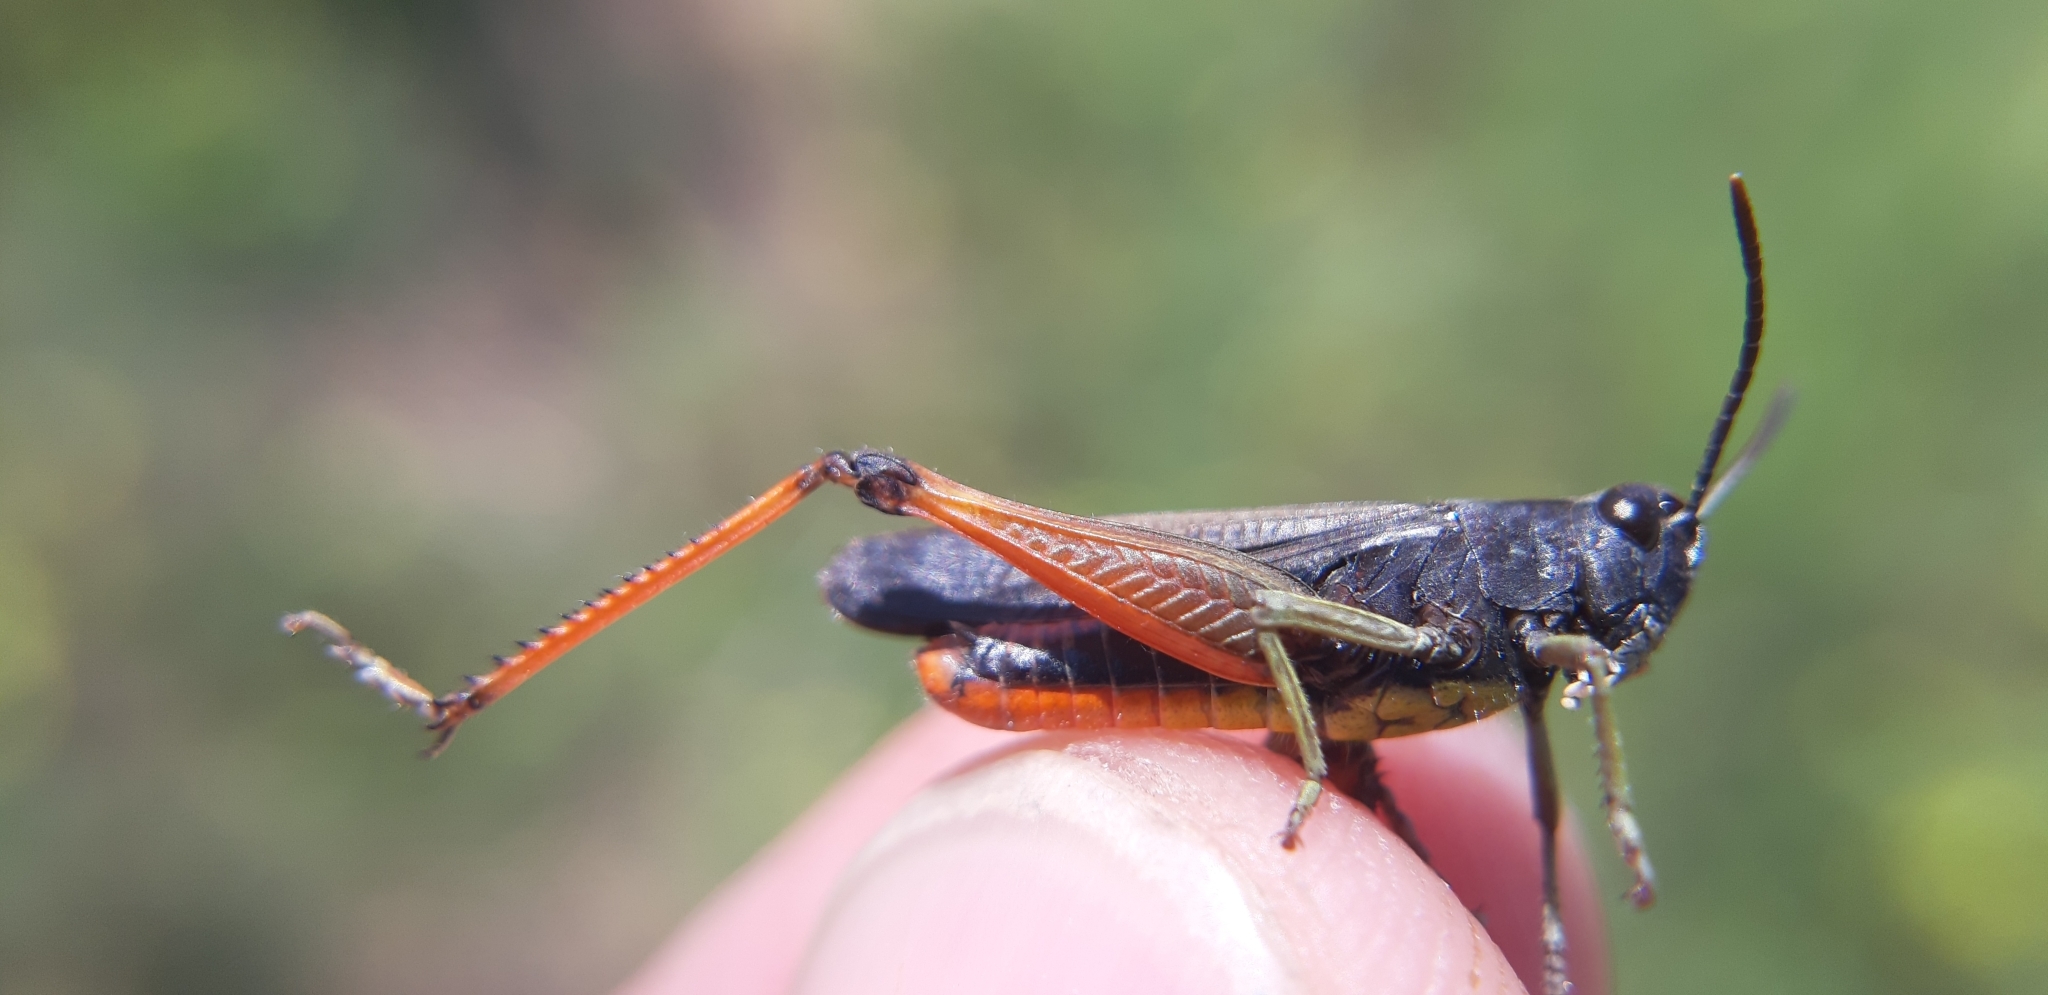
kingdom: Animalia
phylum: Arthropoda
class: Insecta
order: Orthoptera
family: Acrididae
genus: Omocestus
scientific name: Omocestus rufipes
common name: Woodland grasshopper
